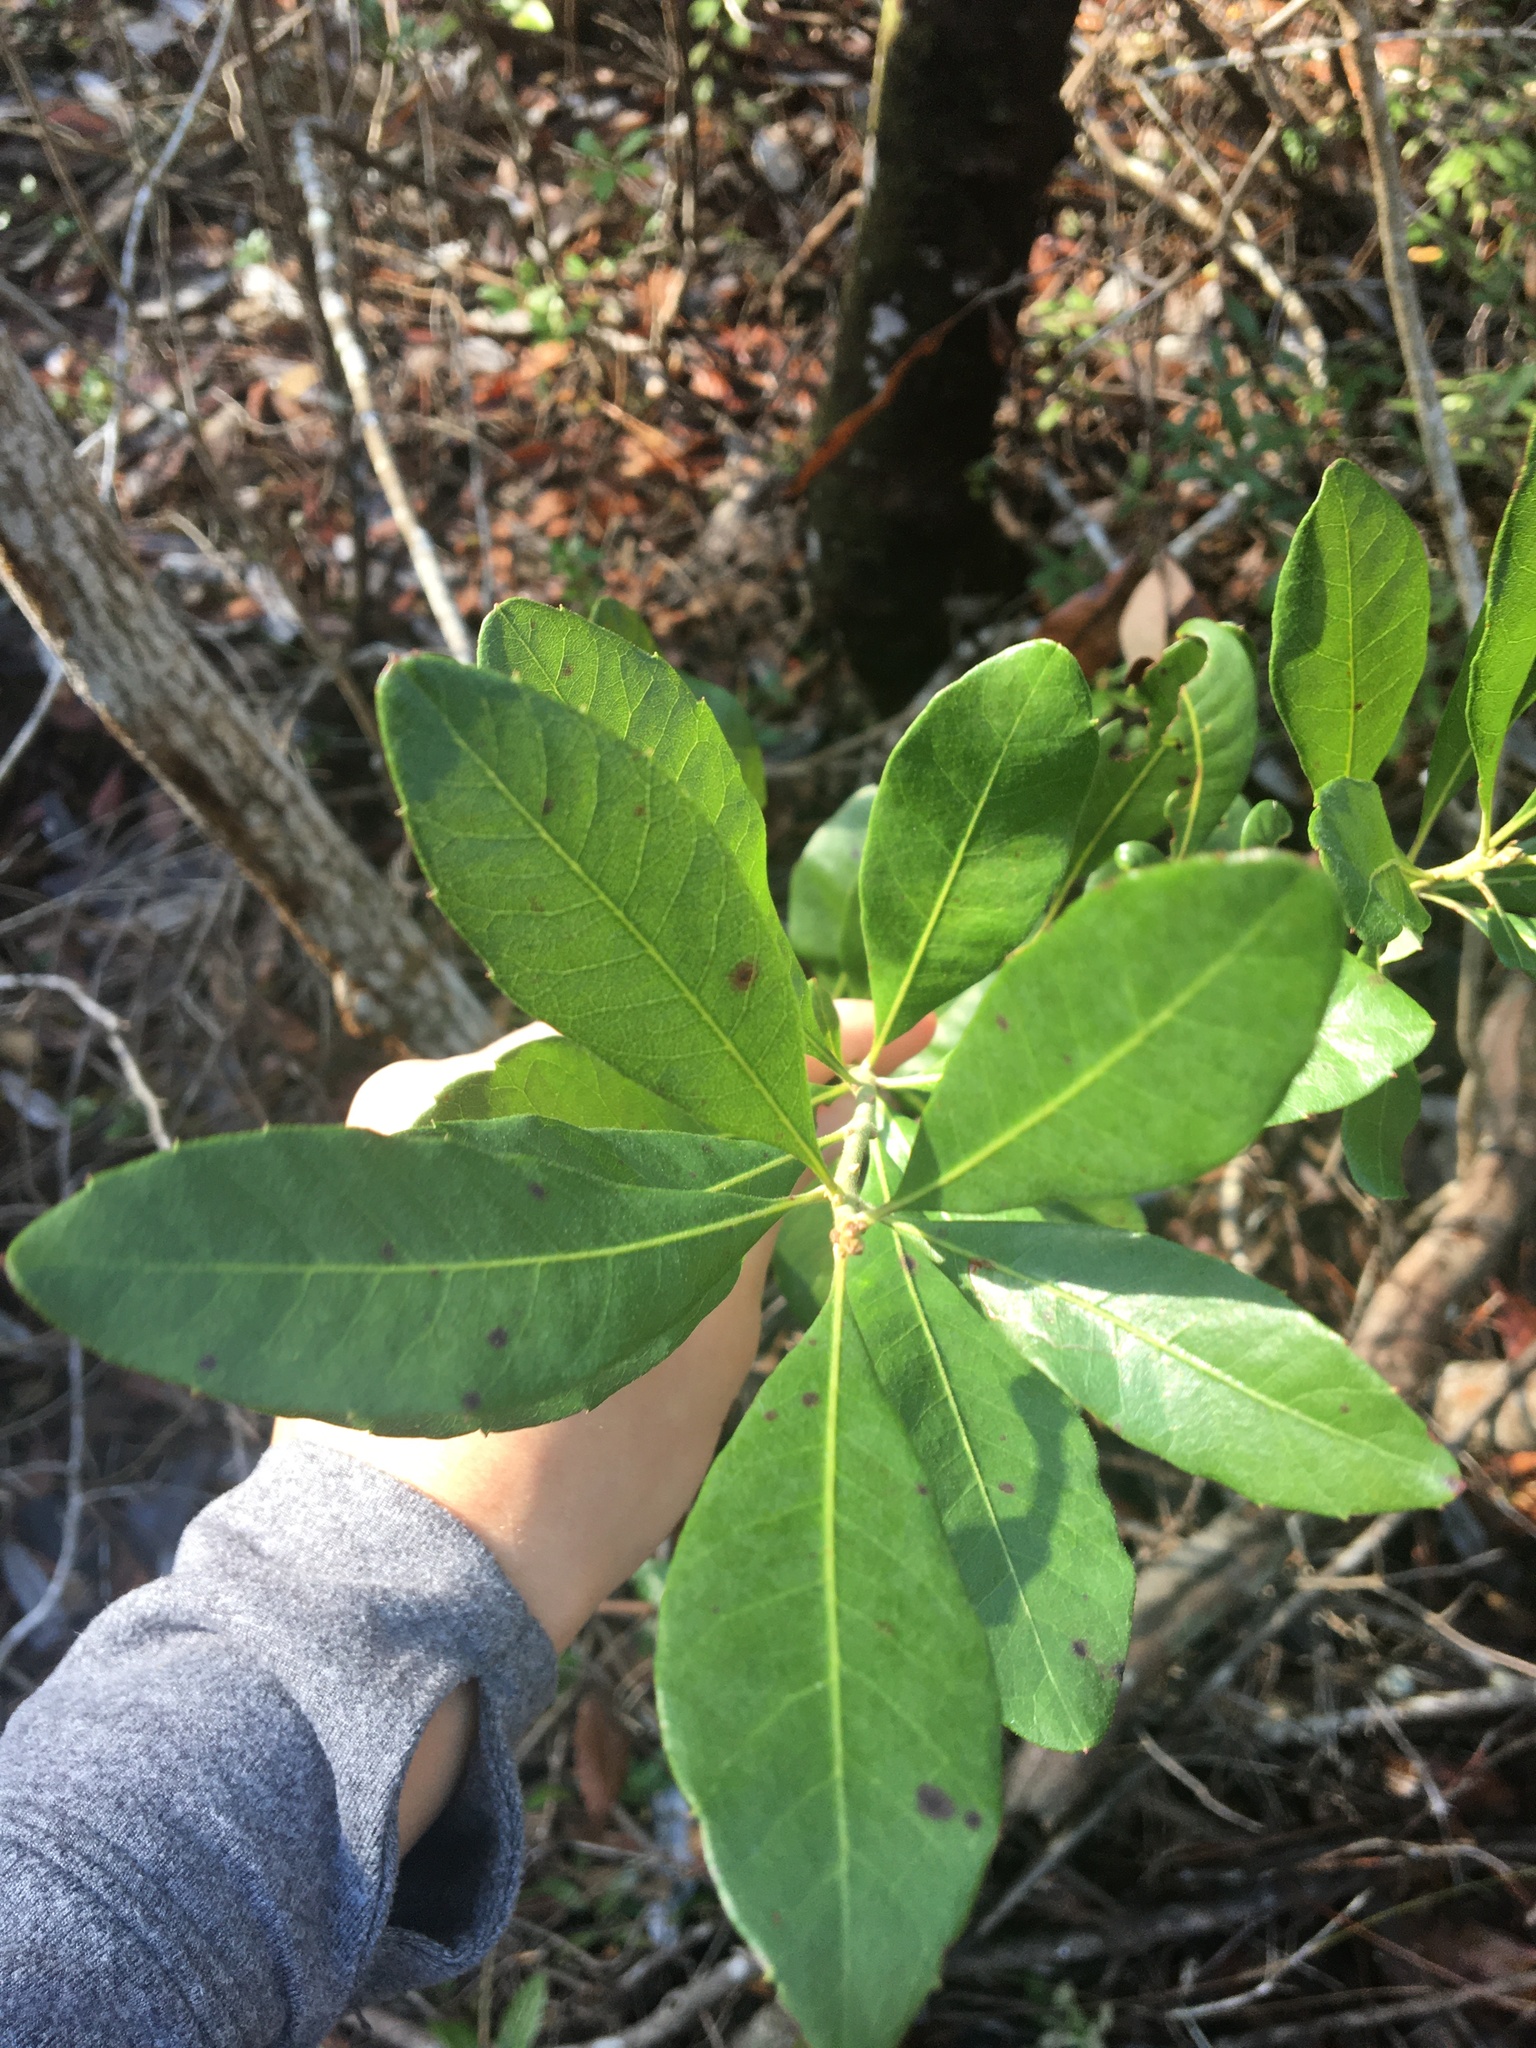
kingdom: Plantae
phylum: Tracheophyta
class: Magnoliopsida
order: Fagales
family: Myricaceae
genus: Morella
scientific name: Morella caroliniensis
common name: Evergreen bayberry
